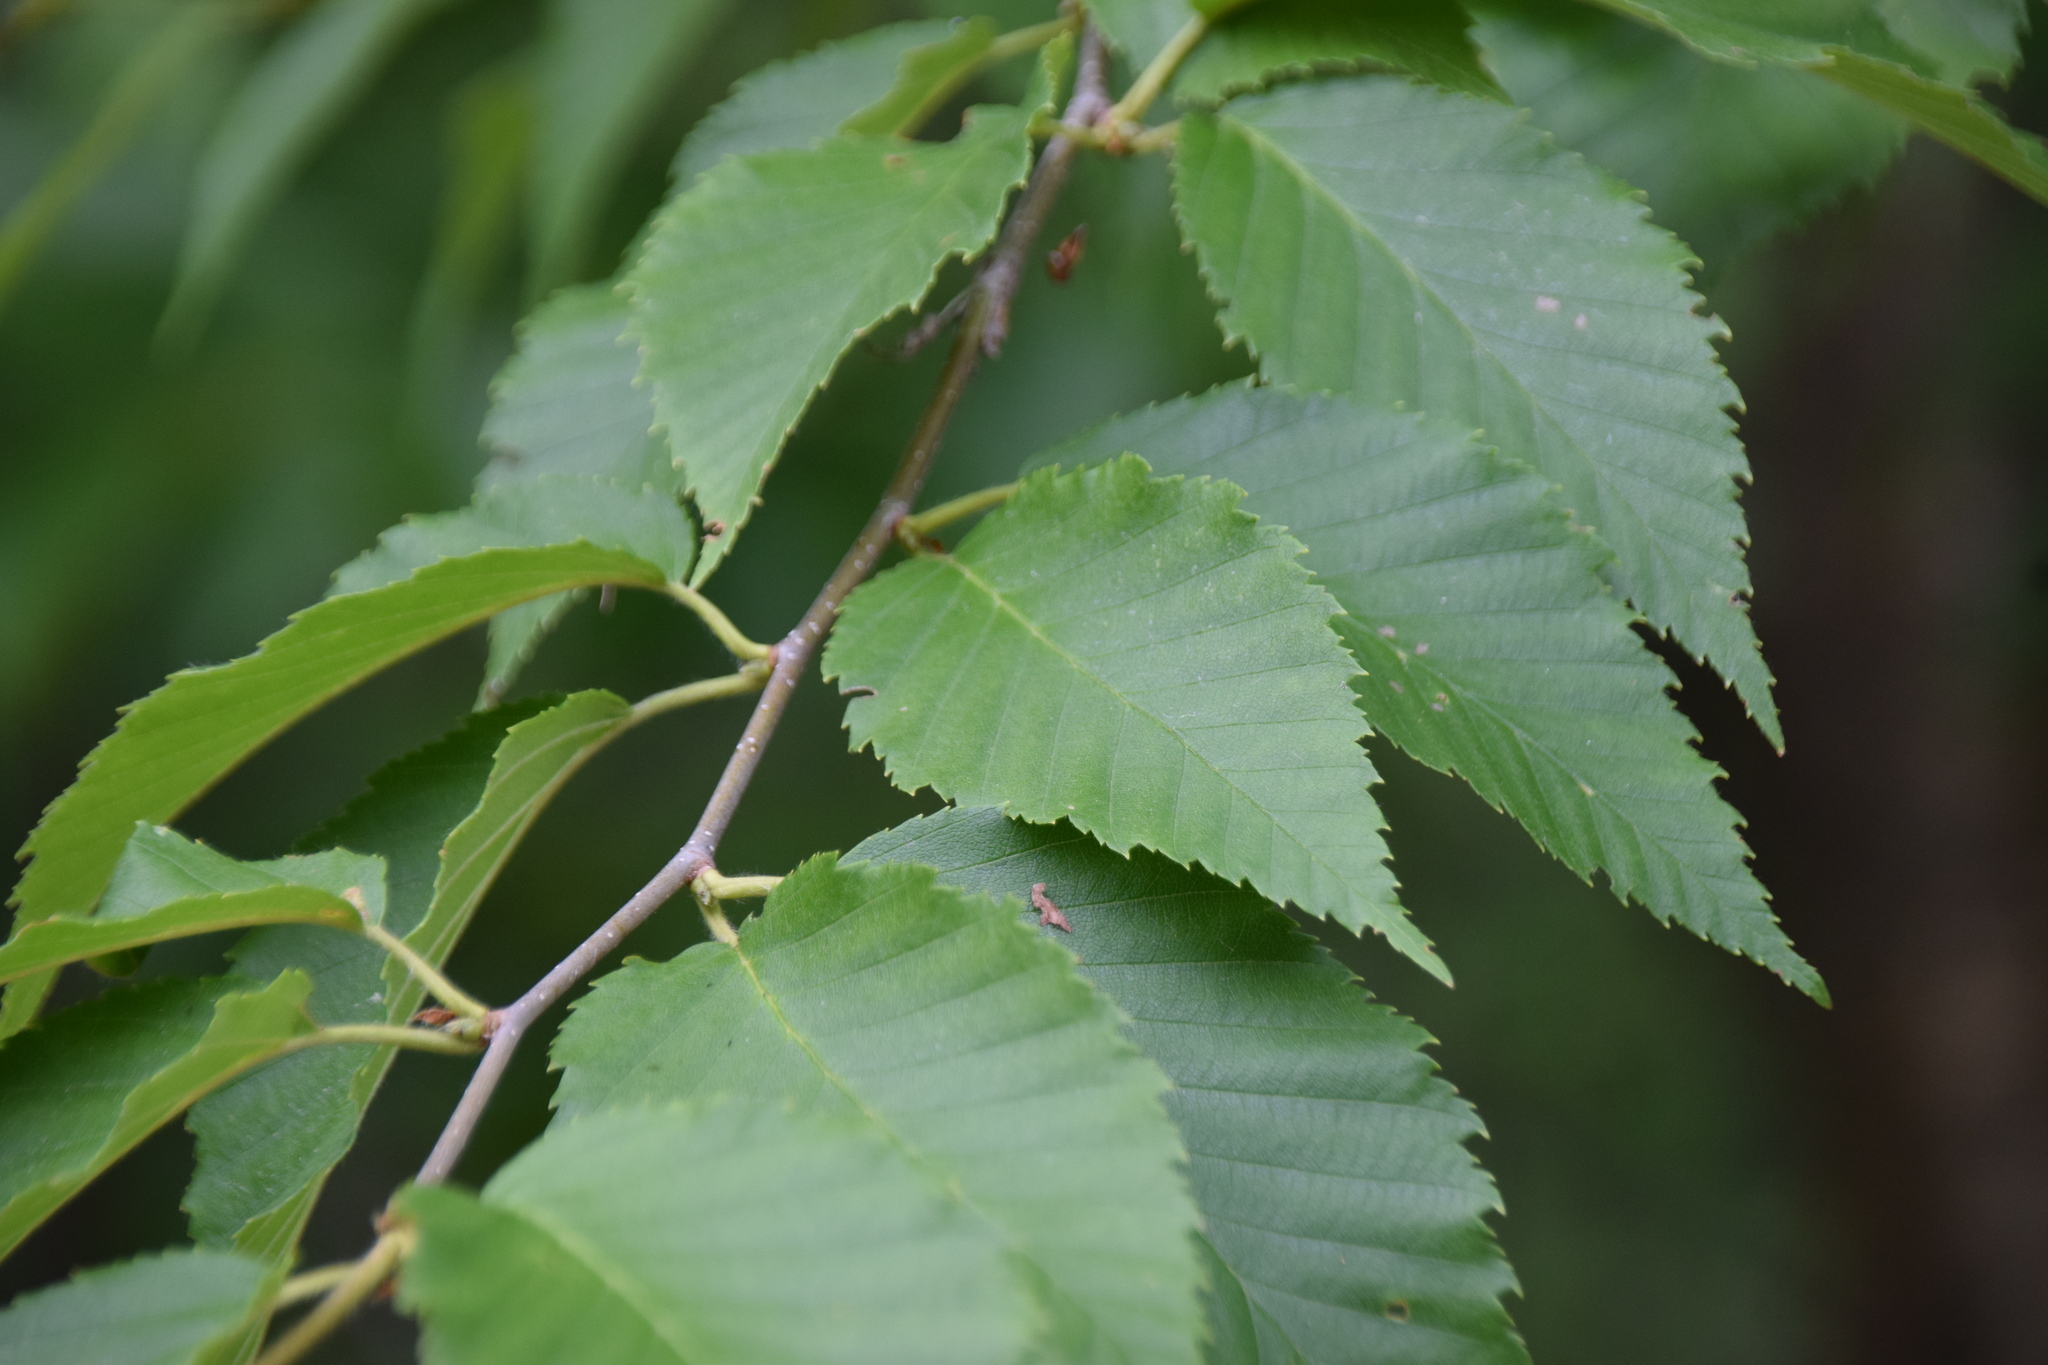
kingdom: Plantae
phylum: Tracheophyta
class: Magnoliopsida
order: Fagales
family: Betulaceae
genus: Betula
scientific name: Betula alleghaniensis
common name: Yellow birch
